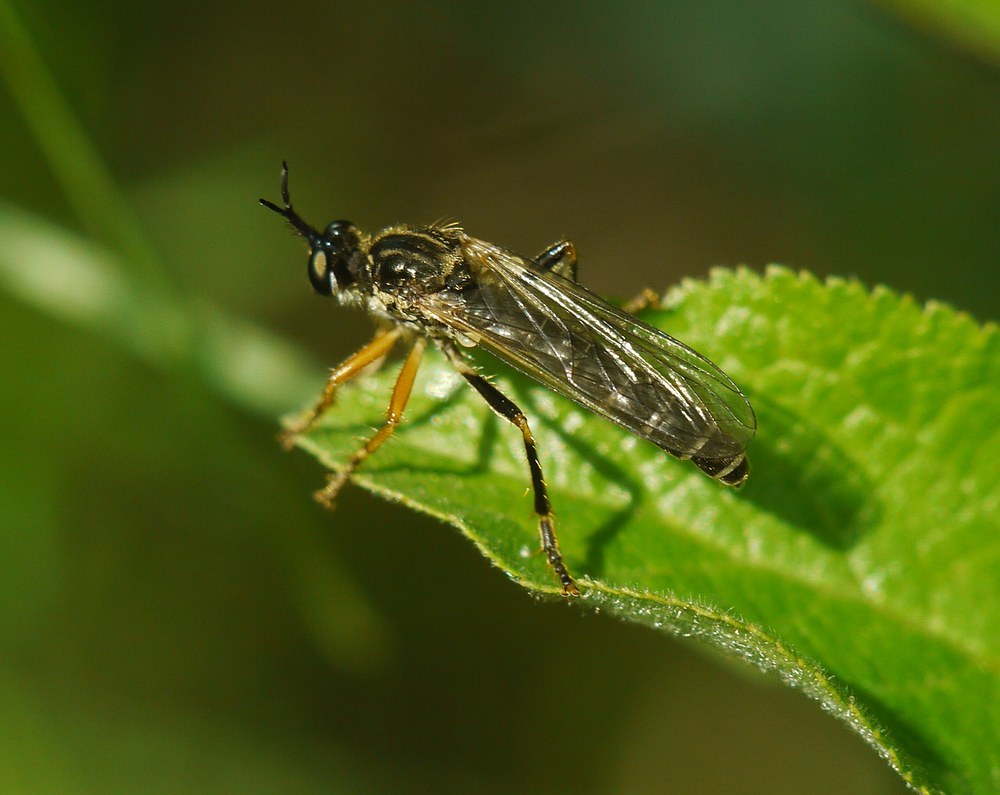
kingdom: Animalia
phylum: Arthropoda
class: Insecta
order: Diptera
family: Asilidae
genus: Dioctria
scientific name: Dioctria rufipes
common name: Common red-legged robberfly
